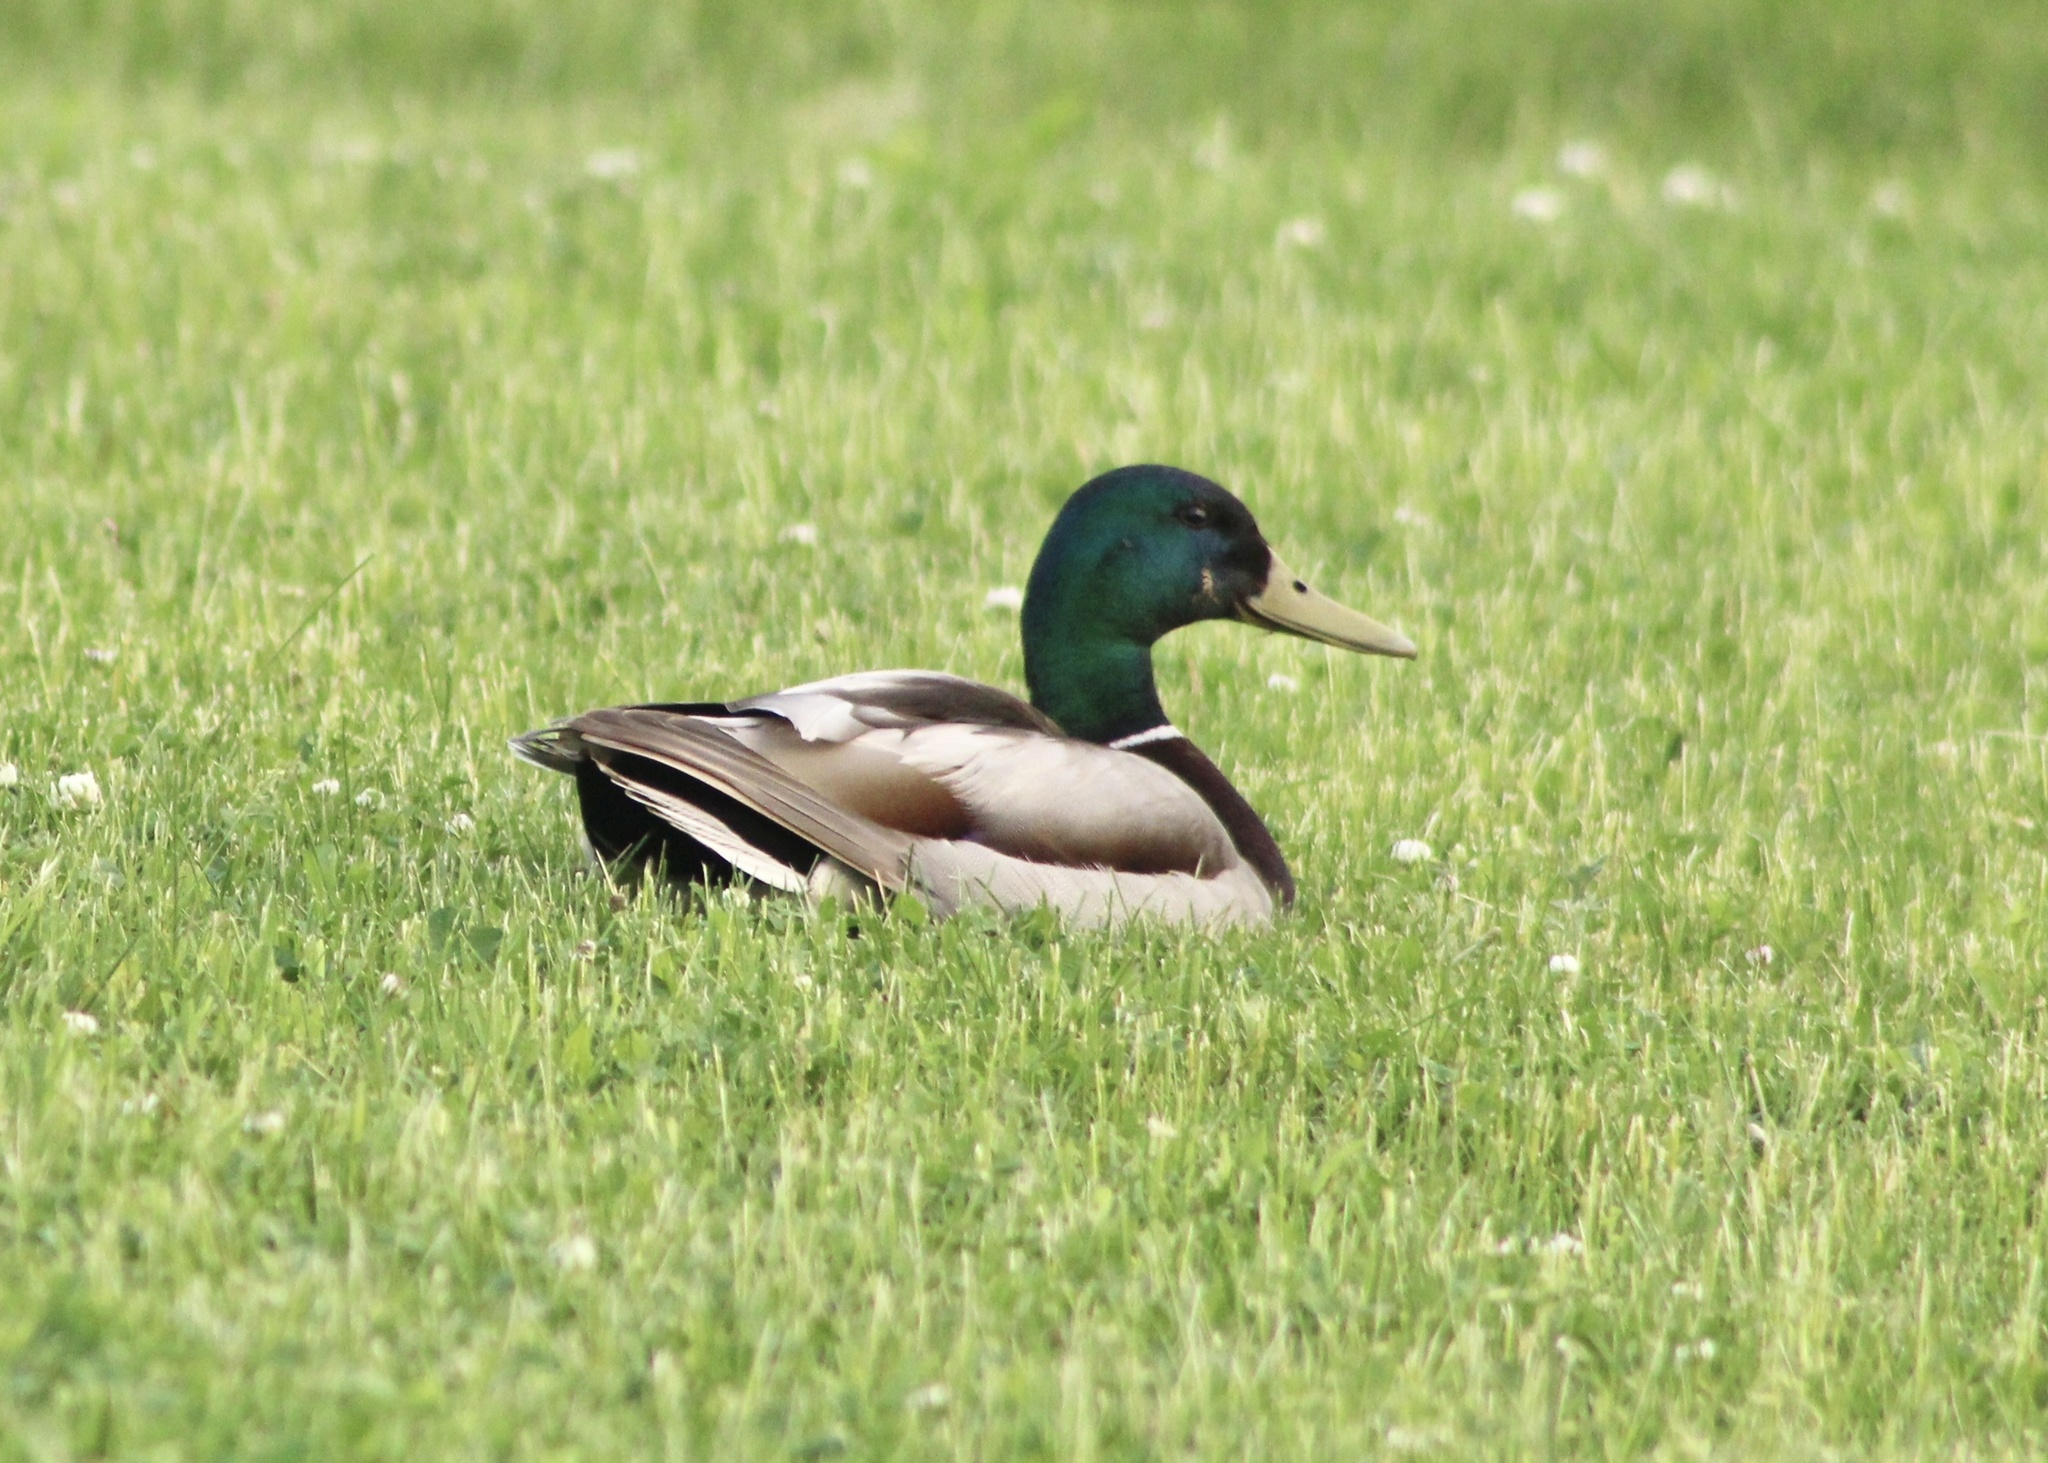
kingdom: Animalia
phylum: Chordata
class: Aves
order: Anseriformes
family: Anatidae
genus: Anas
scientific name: Anas platyrhynchos
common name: Mallard
